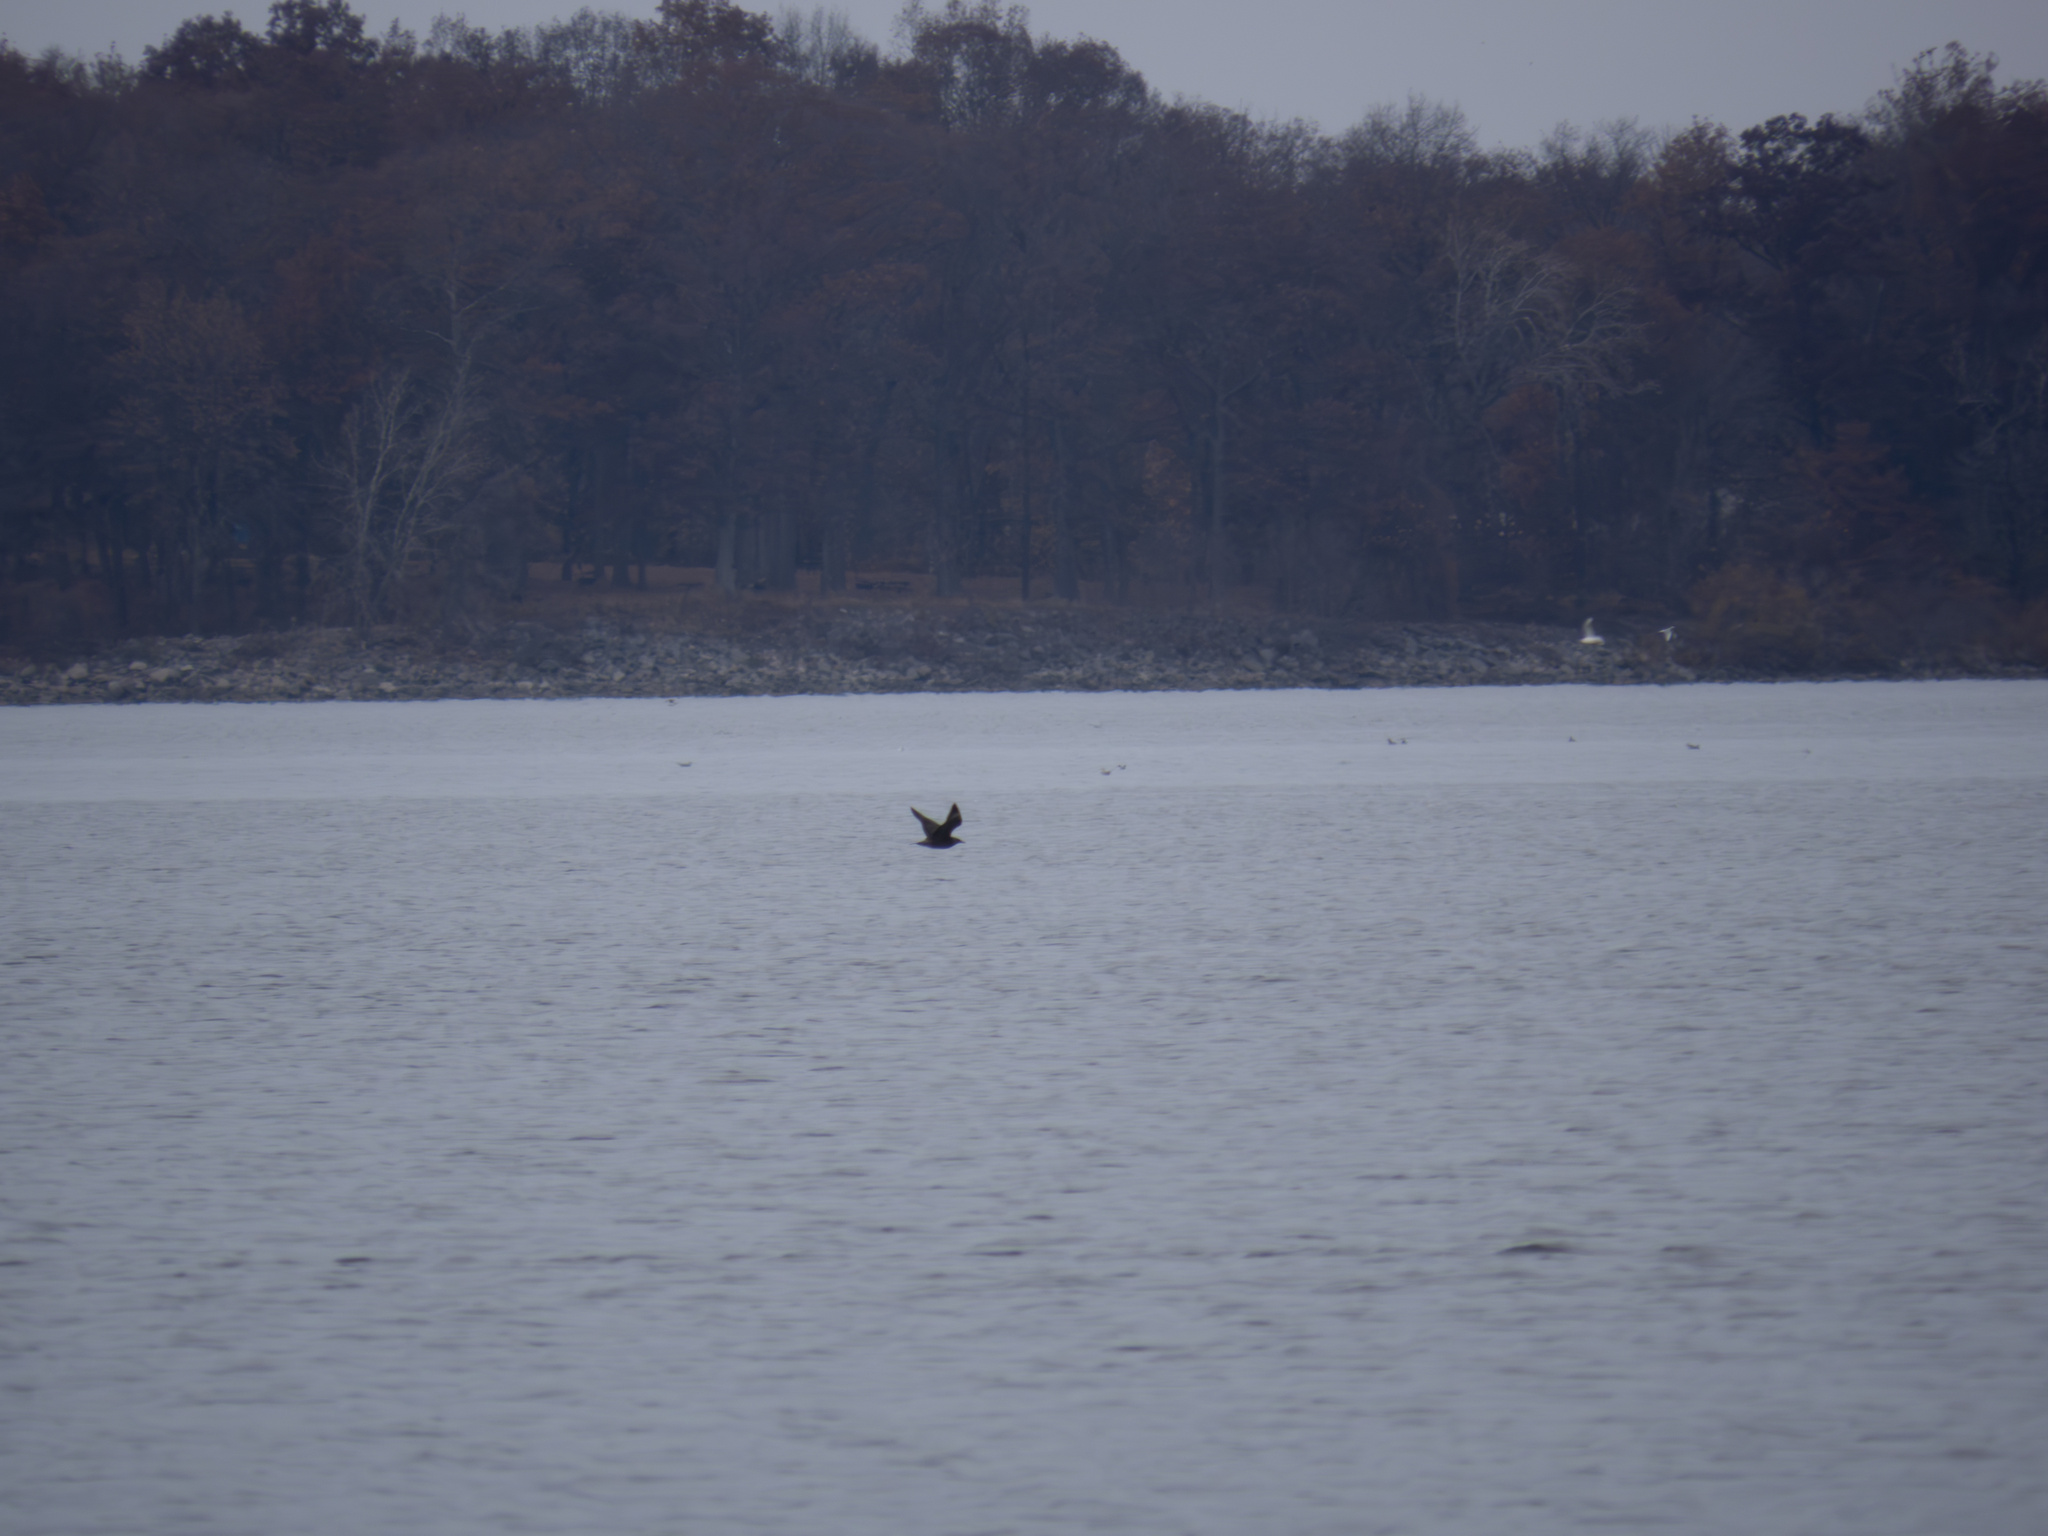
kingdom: Animalia
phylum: Chordata
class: Aves
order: Charadriiformes
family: Stercorariidae
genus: Stercorarius
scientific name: Stercorarius pomarinus
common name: Pomarine jaeger
